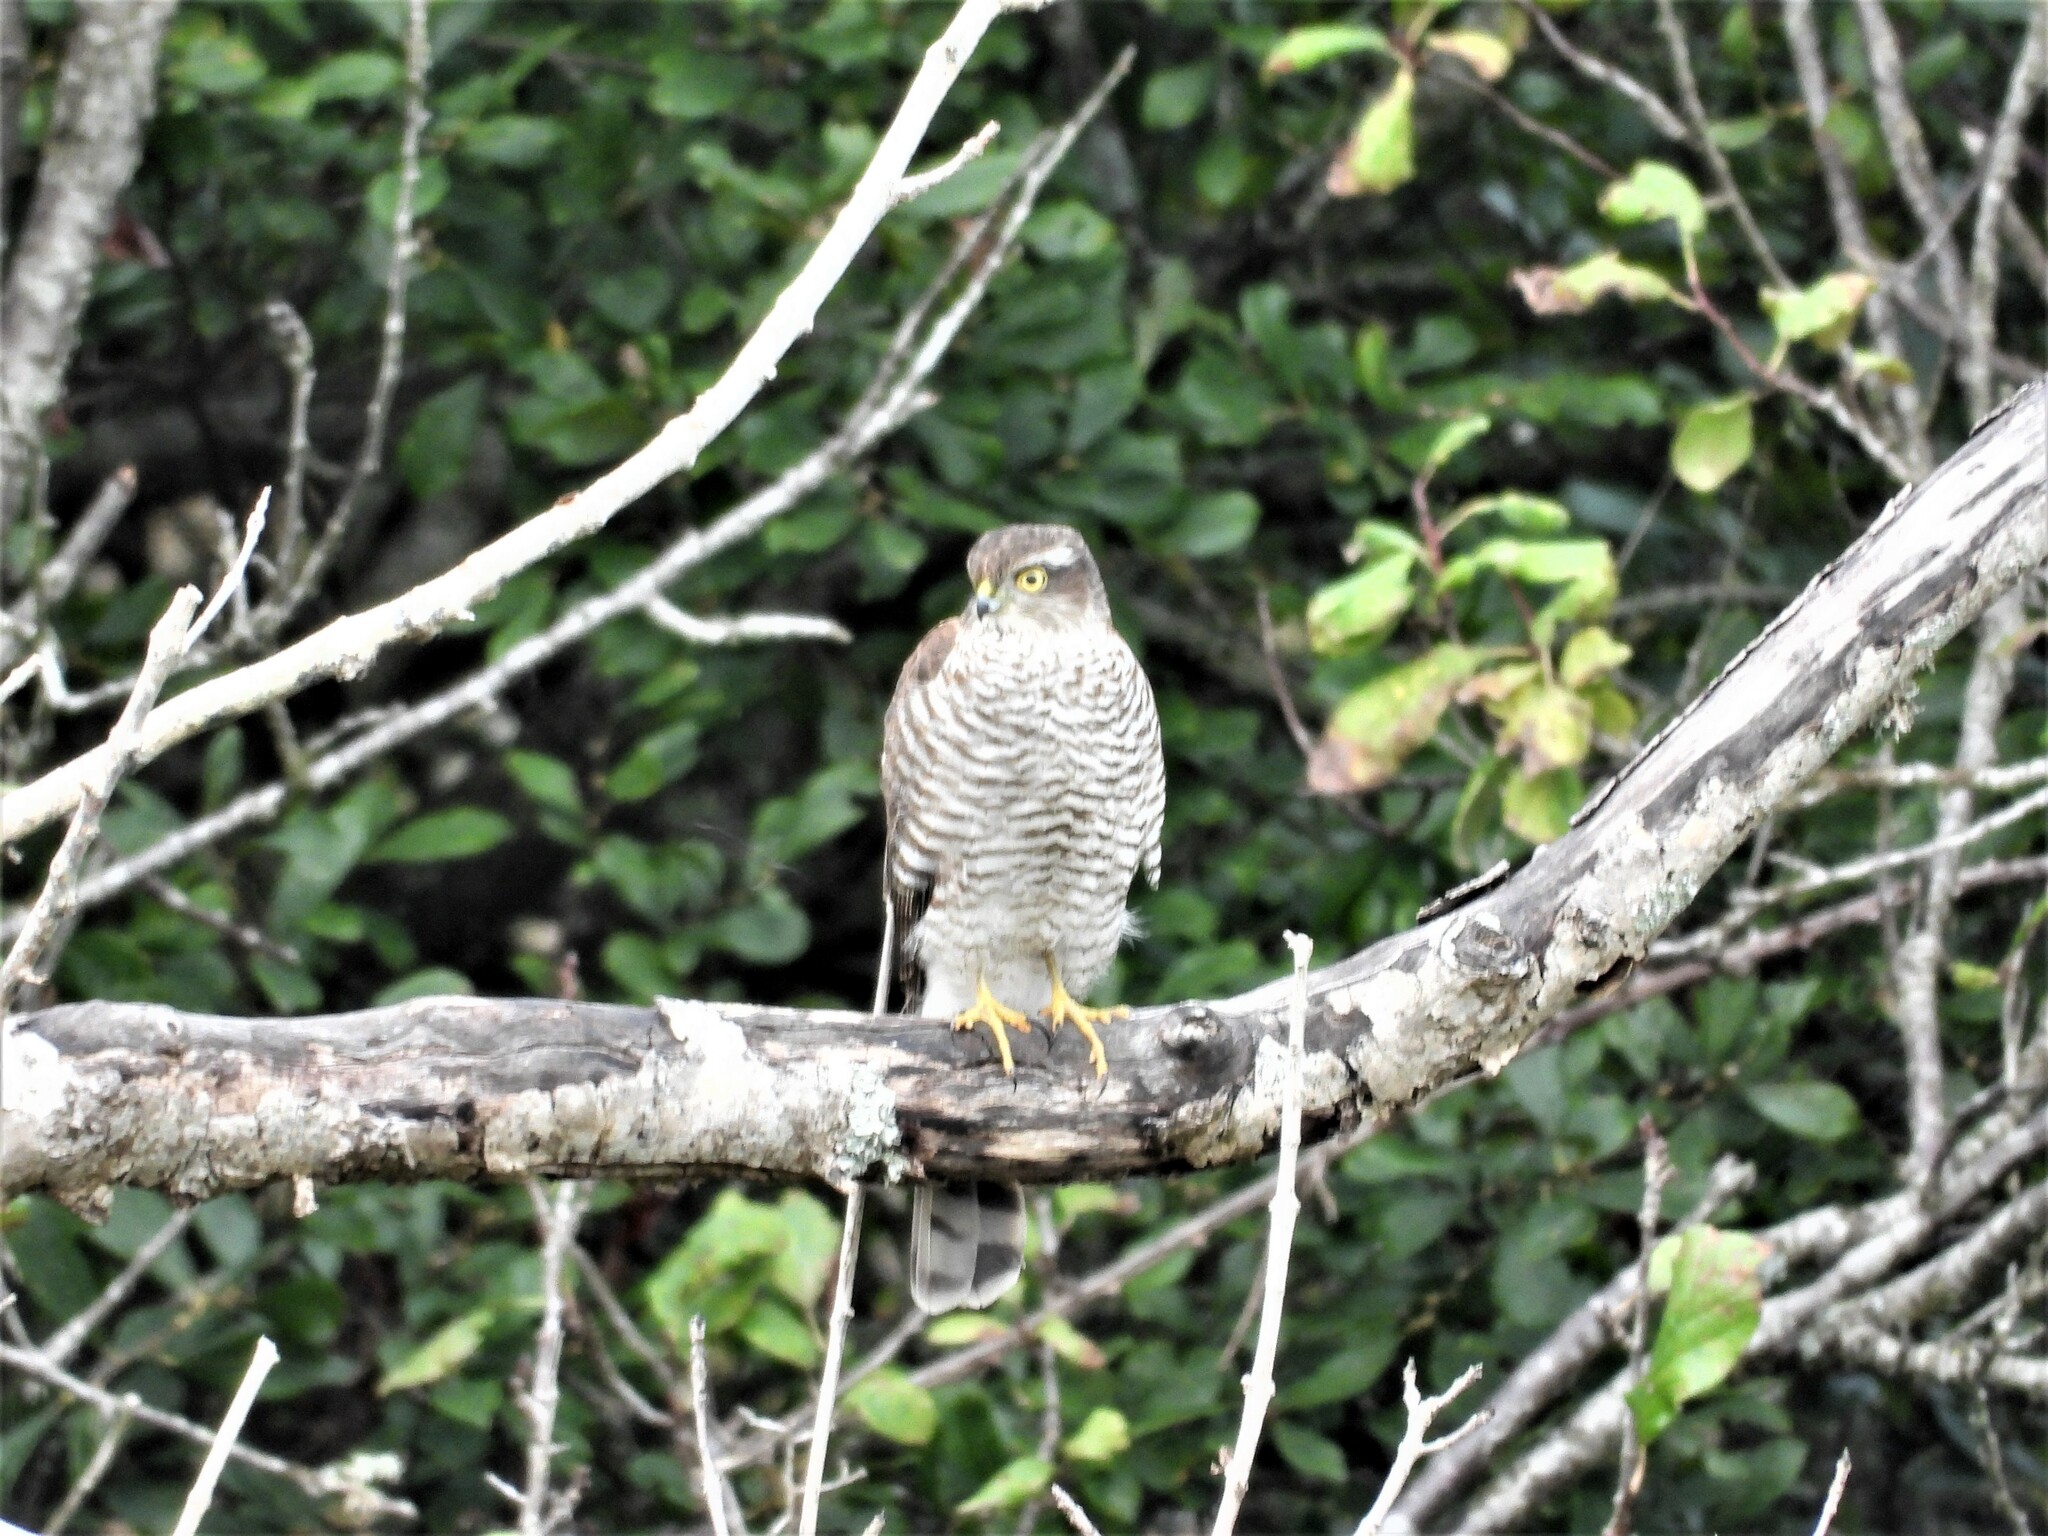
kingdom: Animalia
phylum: Chordata
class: Aves
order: Accipitriformes
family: Accipitridae
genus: Accipiter
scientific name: Accipiter nisus
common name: Eurasian sparrowhawk
